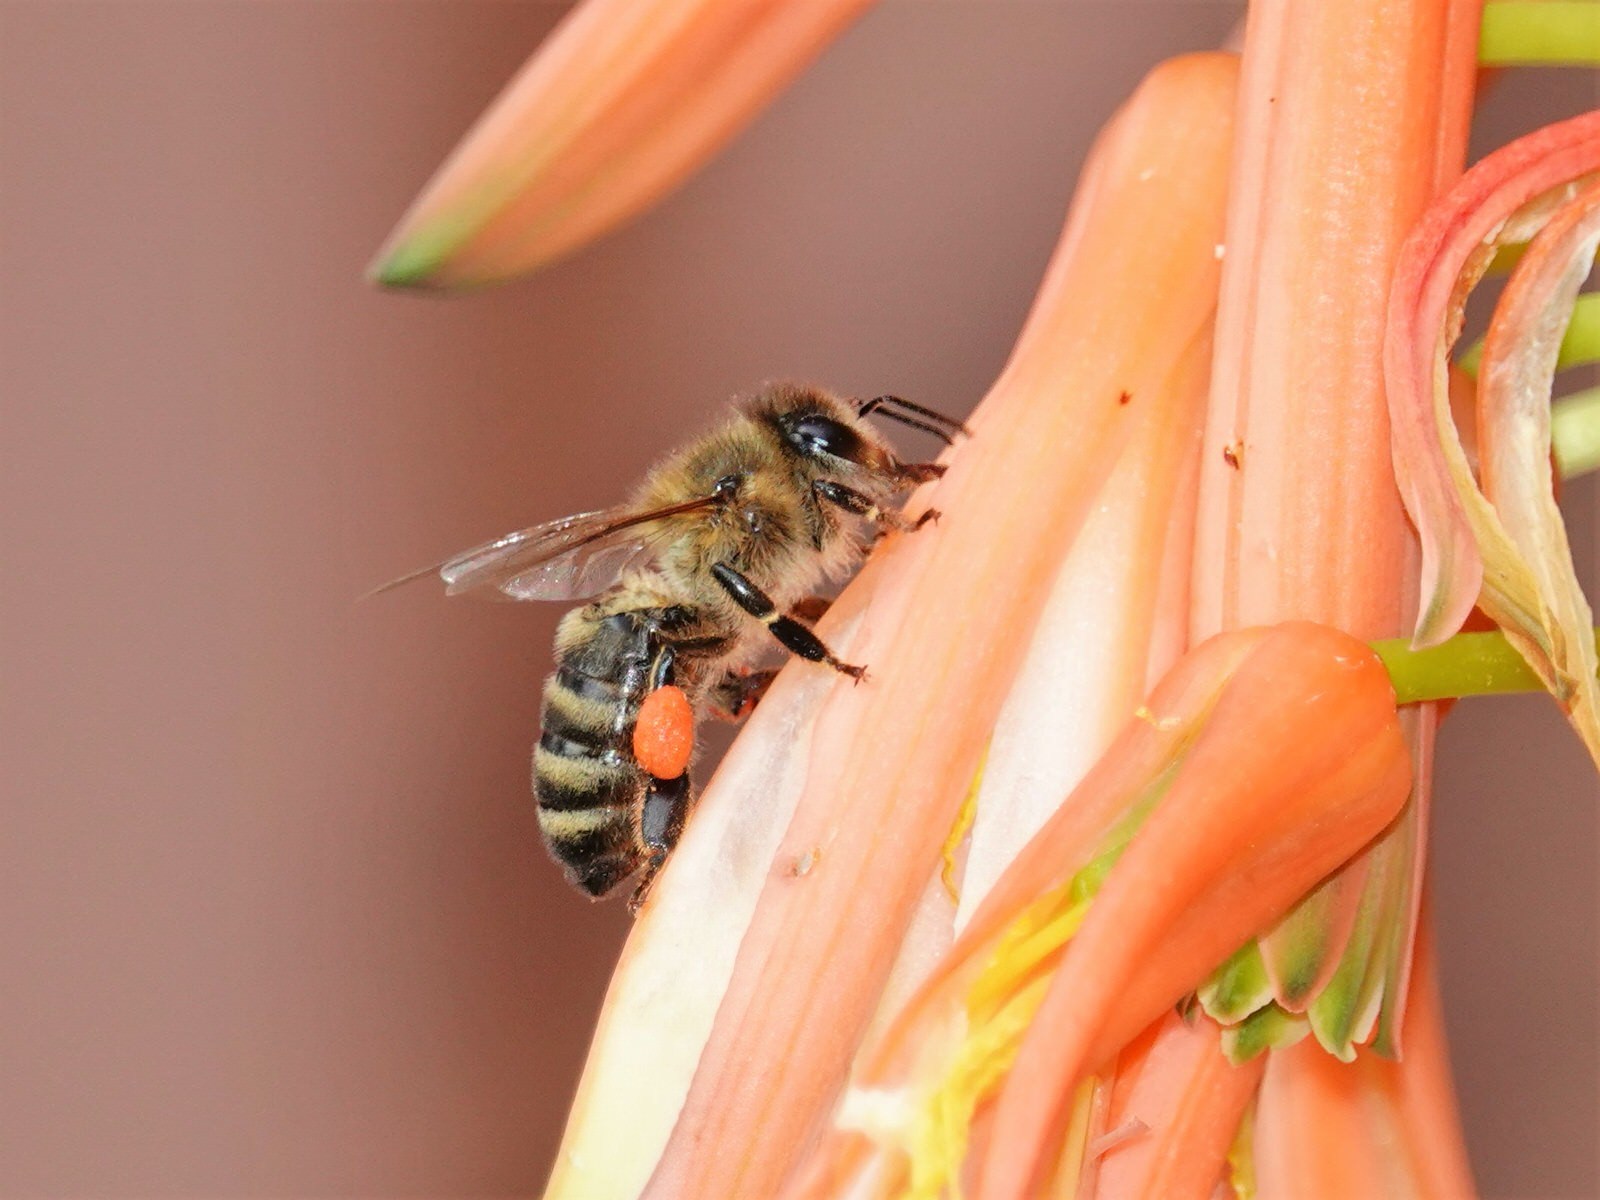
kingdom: Animalia
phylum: Arthropoda
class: Insecta
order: Hymenoptera
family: Apidae
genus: Apis
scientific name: Apis mellifera
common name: Honey bee
